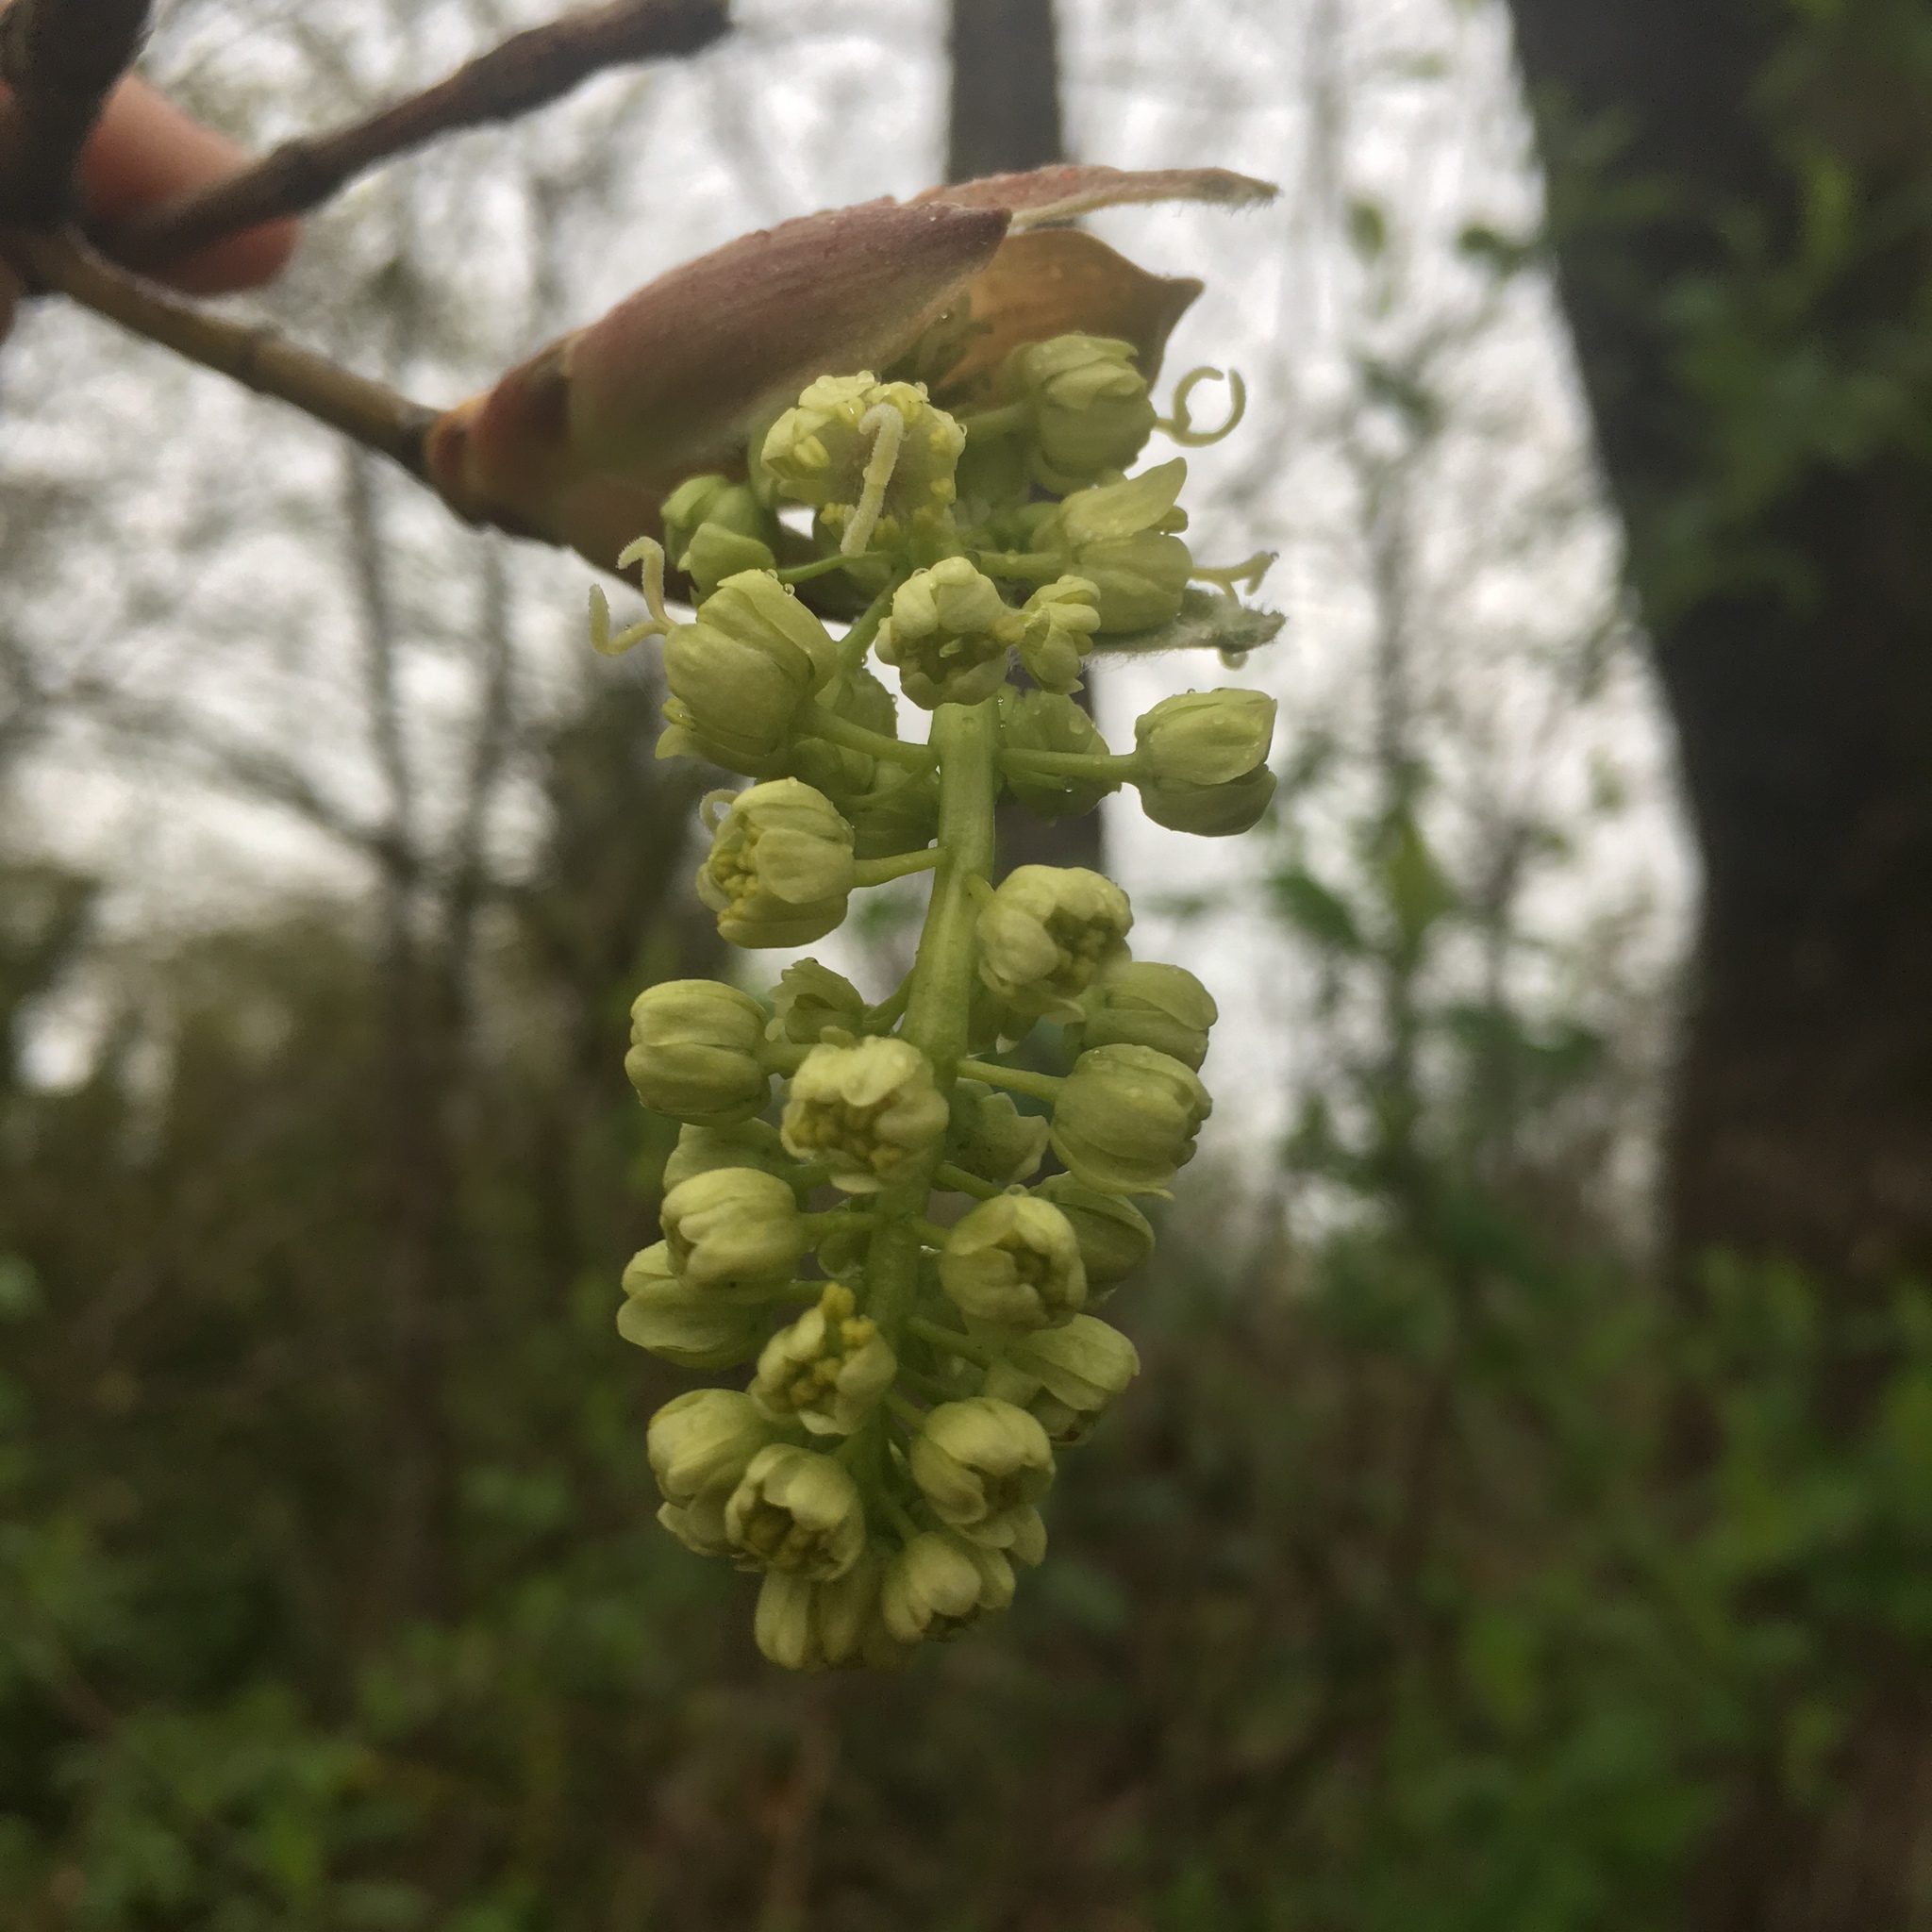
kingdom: Plantae
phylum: Tracheophyta
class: Magnoliopsida
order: Sapindales
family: Sapindaceae
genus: Acer
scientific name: Acer macrophyllum
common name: Oregon maple
